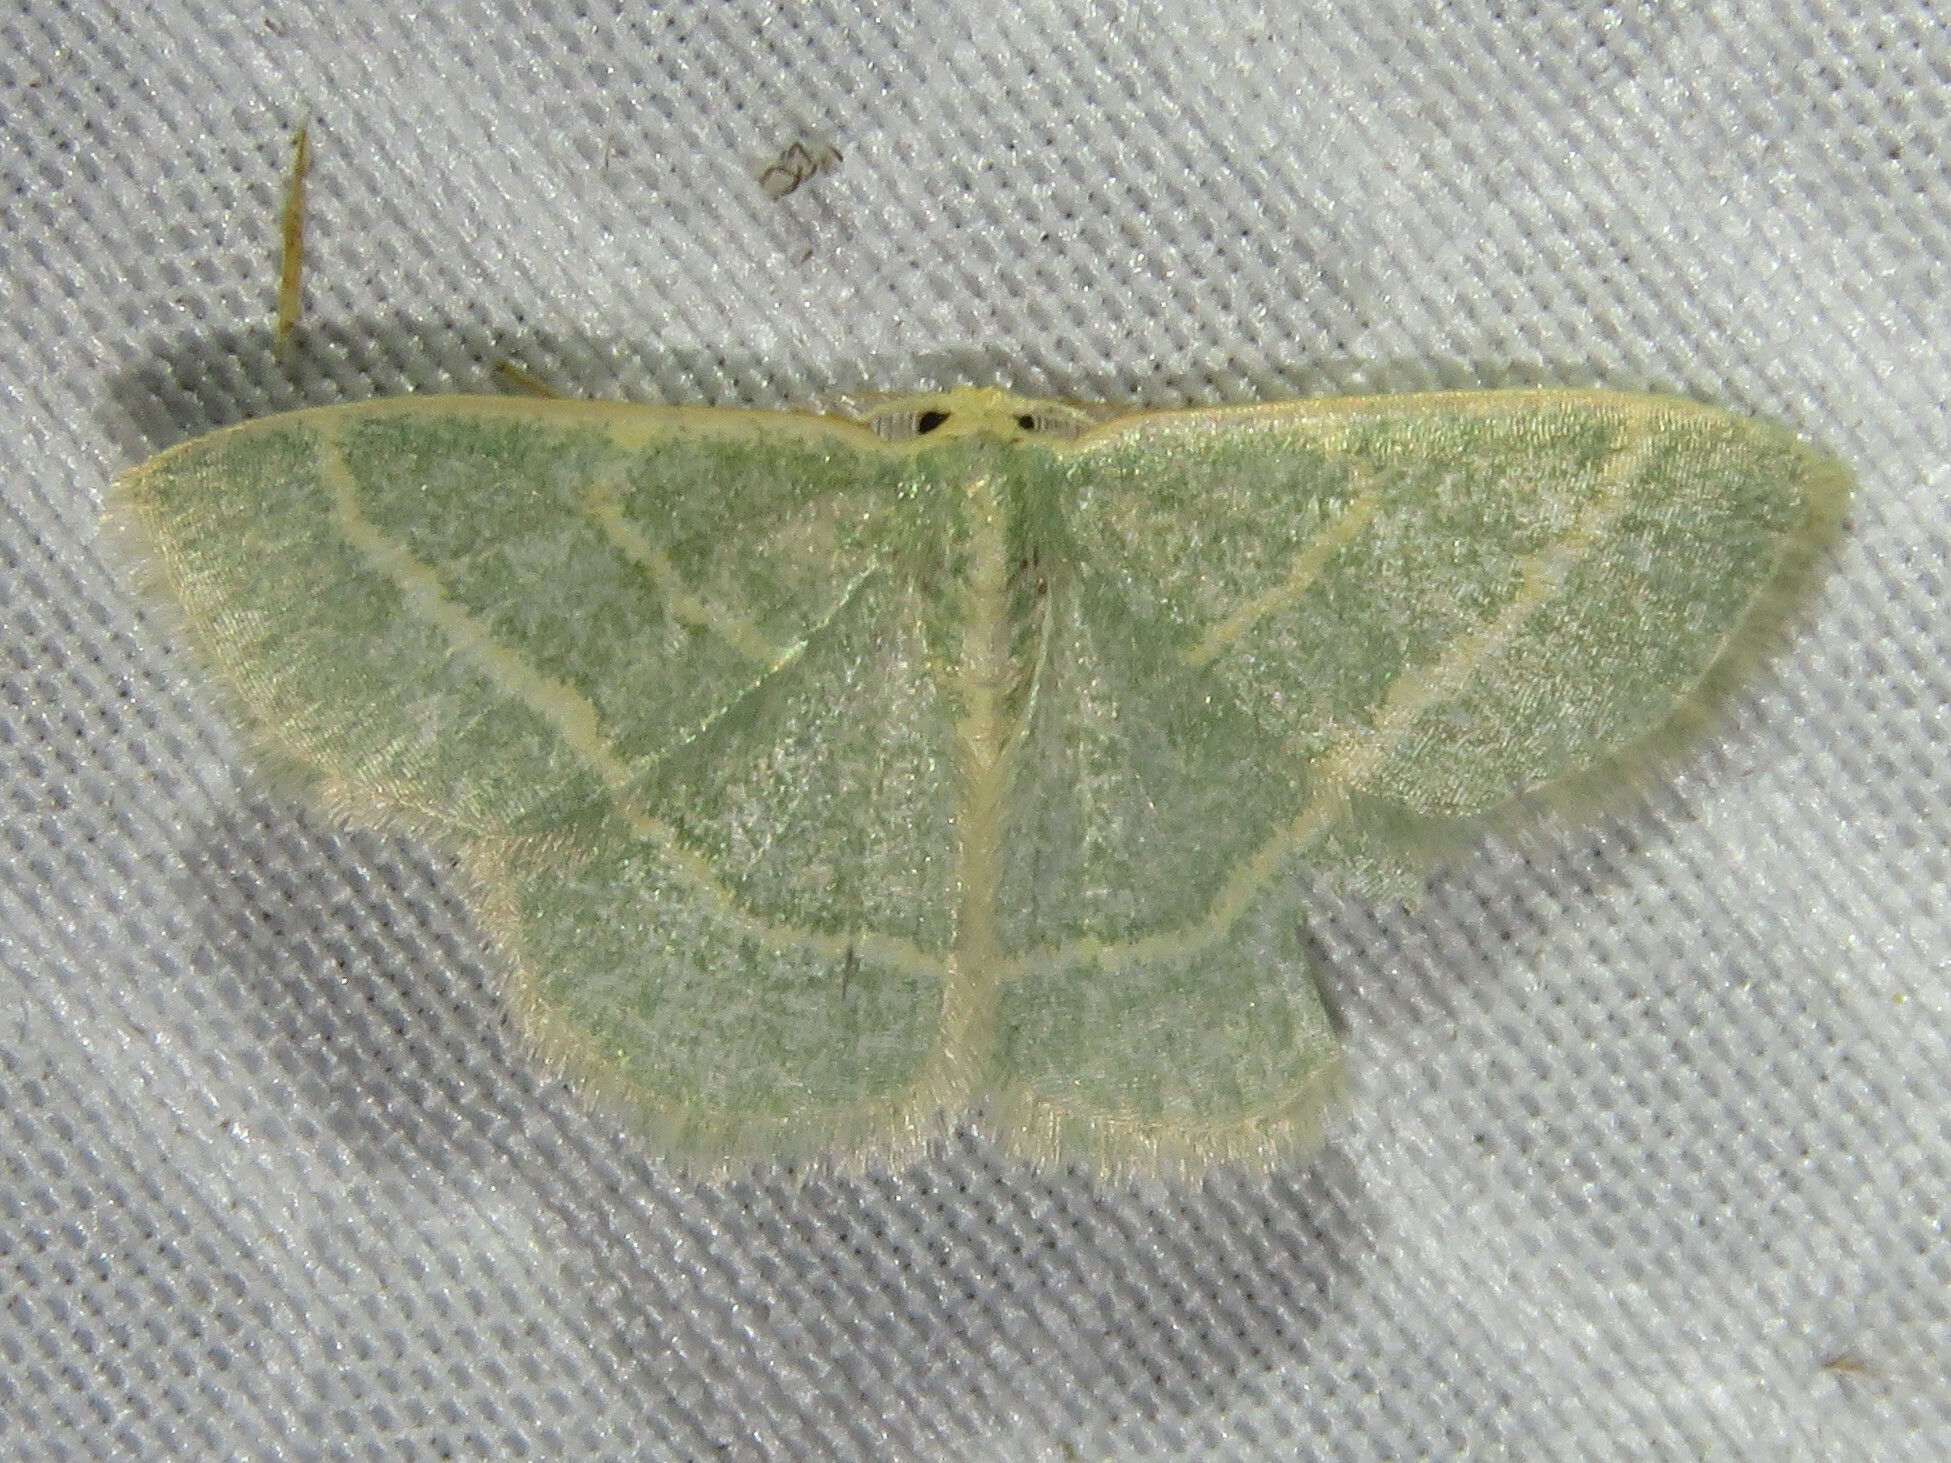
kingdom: Animalia
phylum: Arthropoda
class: Insecta
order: Lepidoptera
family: Geometridae
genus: Chlorochlamys
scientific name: Chlorochlamys chloroleucaria
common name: Blackberry looper
